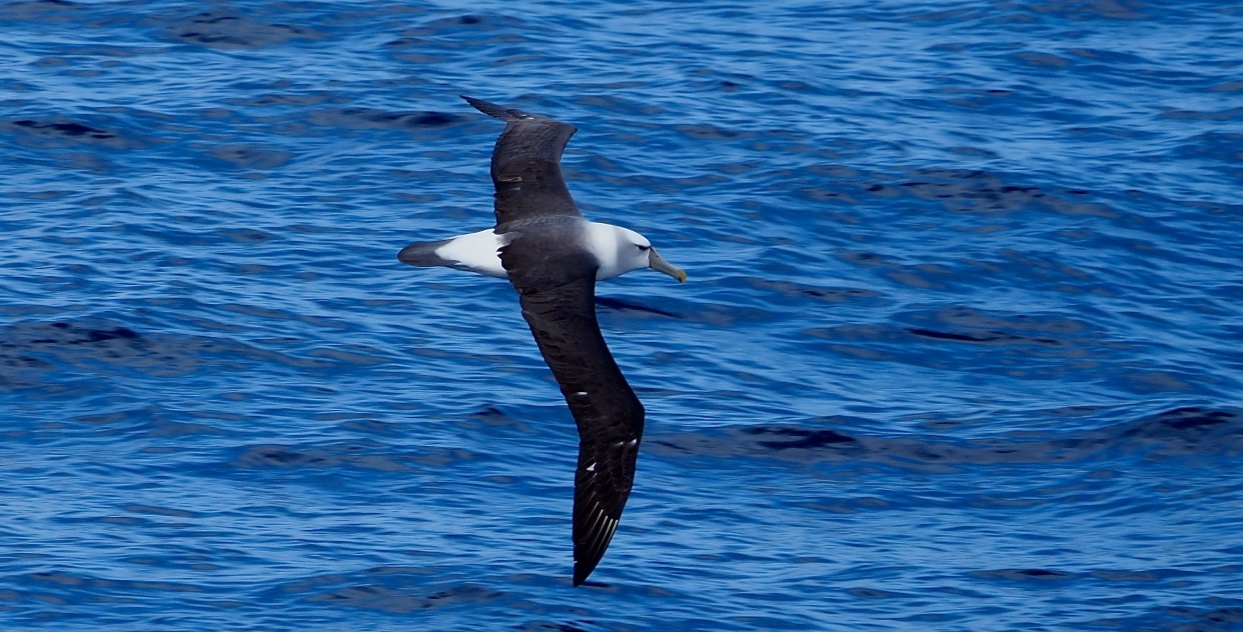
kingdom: Animalia
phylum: Chordata
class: Aves
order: Procellariiformes
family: Diomedeidae
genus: Thalassarche
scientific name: Thalassarche salvini
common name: Salvin's albatross
